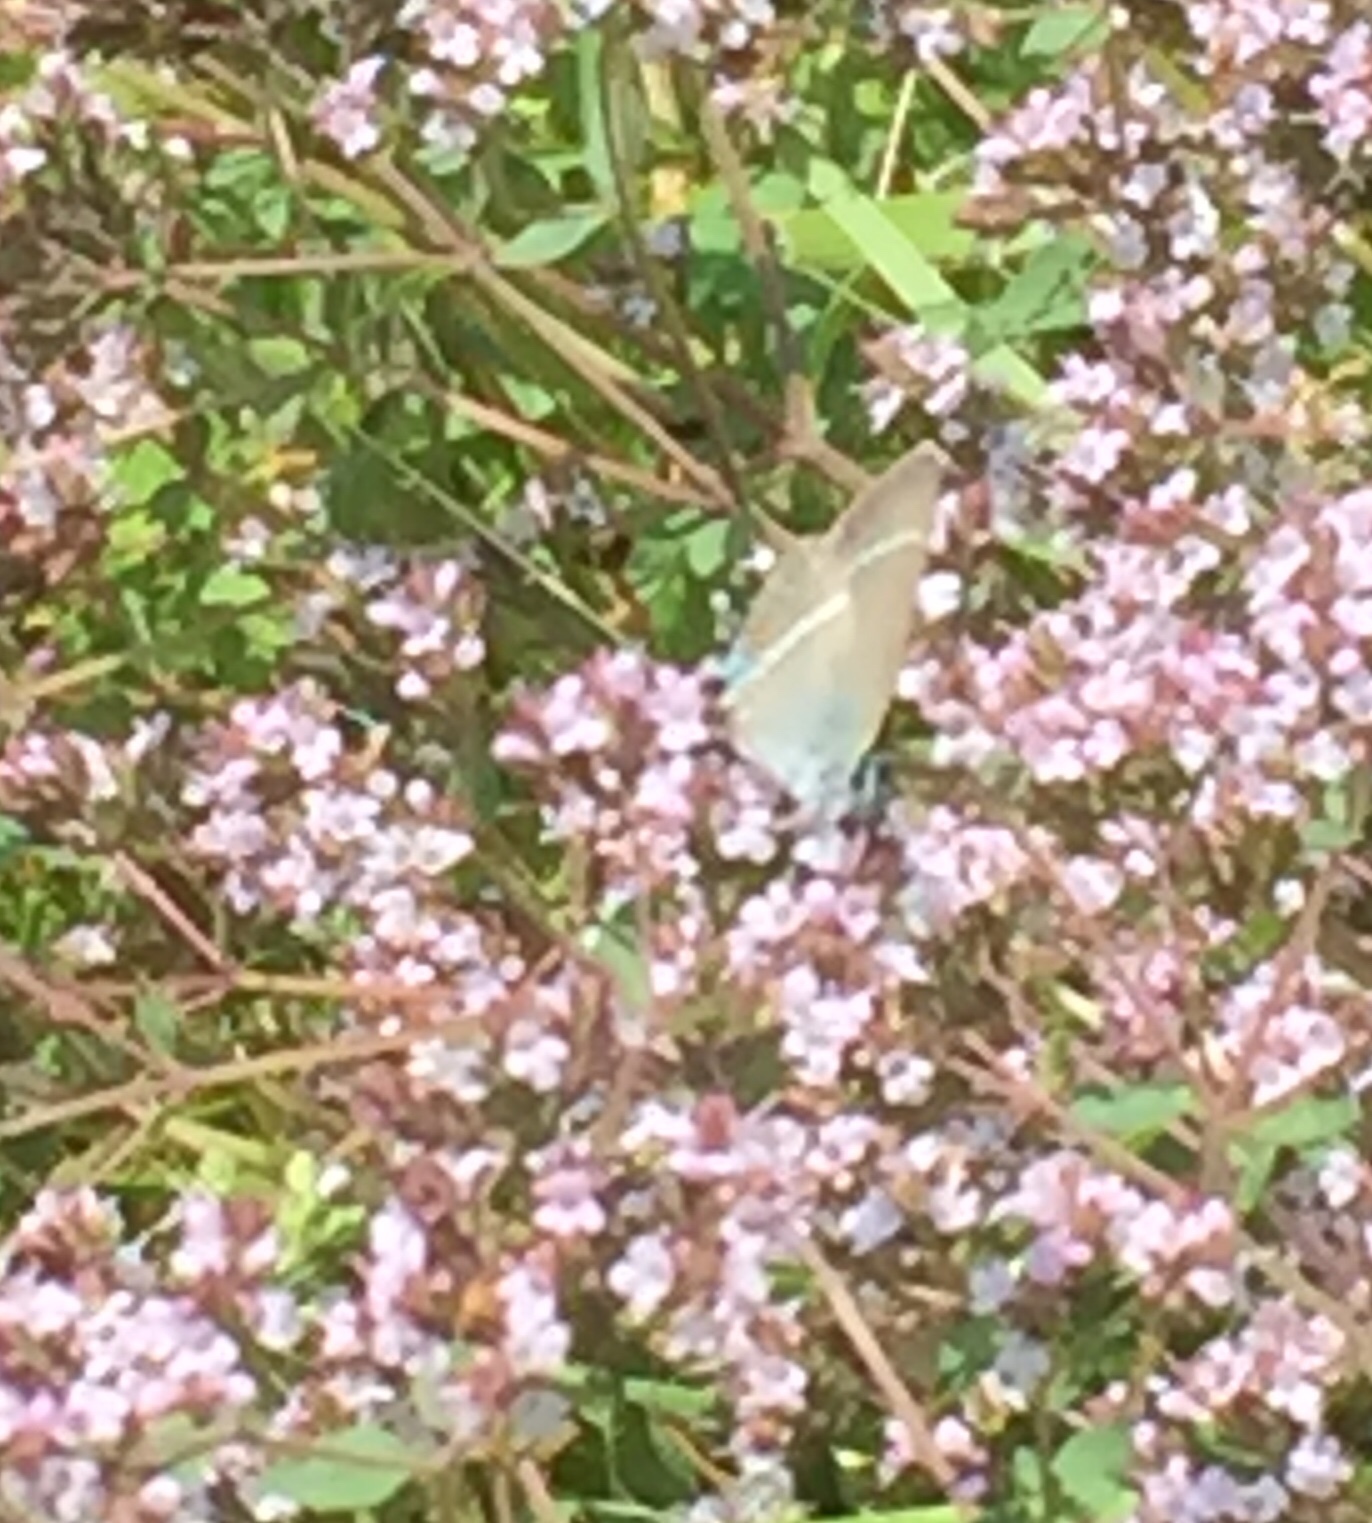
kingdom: Plantae
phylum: Tracheophyta
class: Magnoliopsida
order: Lamiales
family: Lamiaceae
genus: Origanum
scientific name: Origanum vulgare
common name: Wild marjoram
